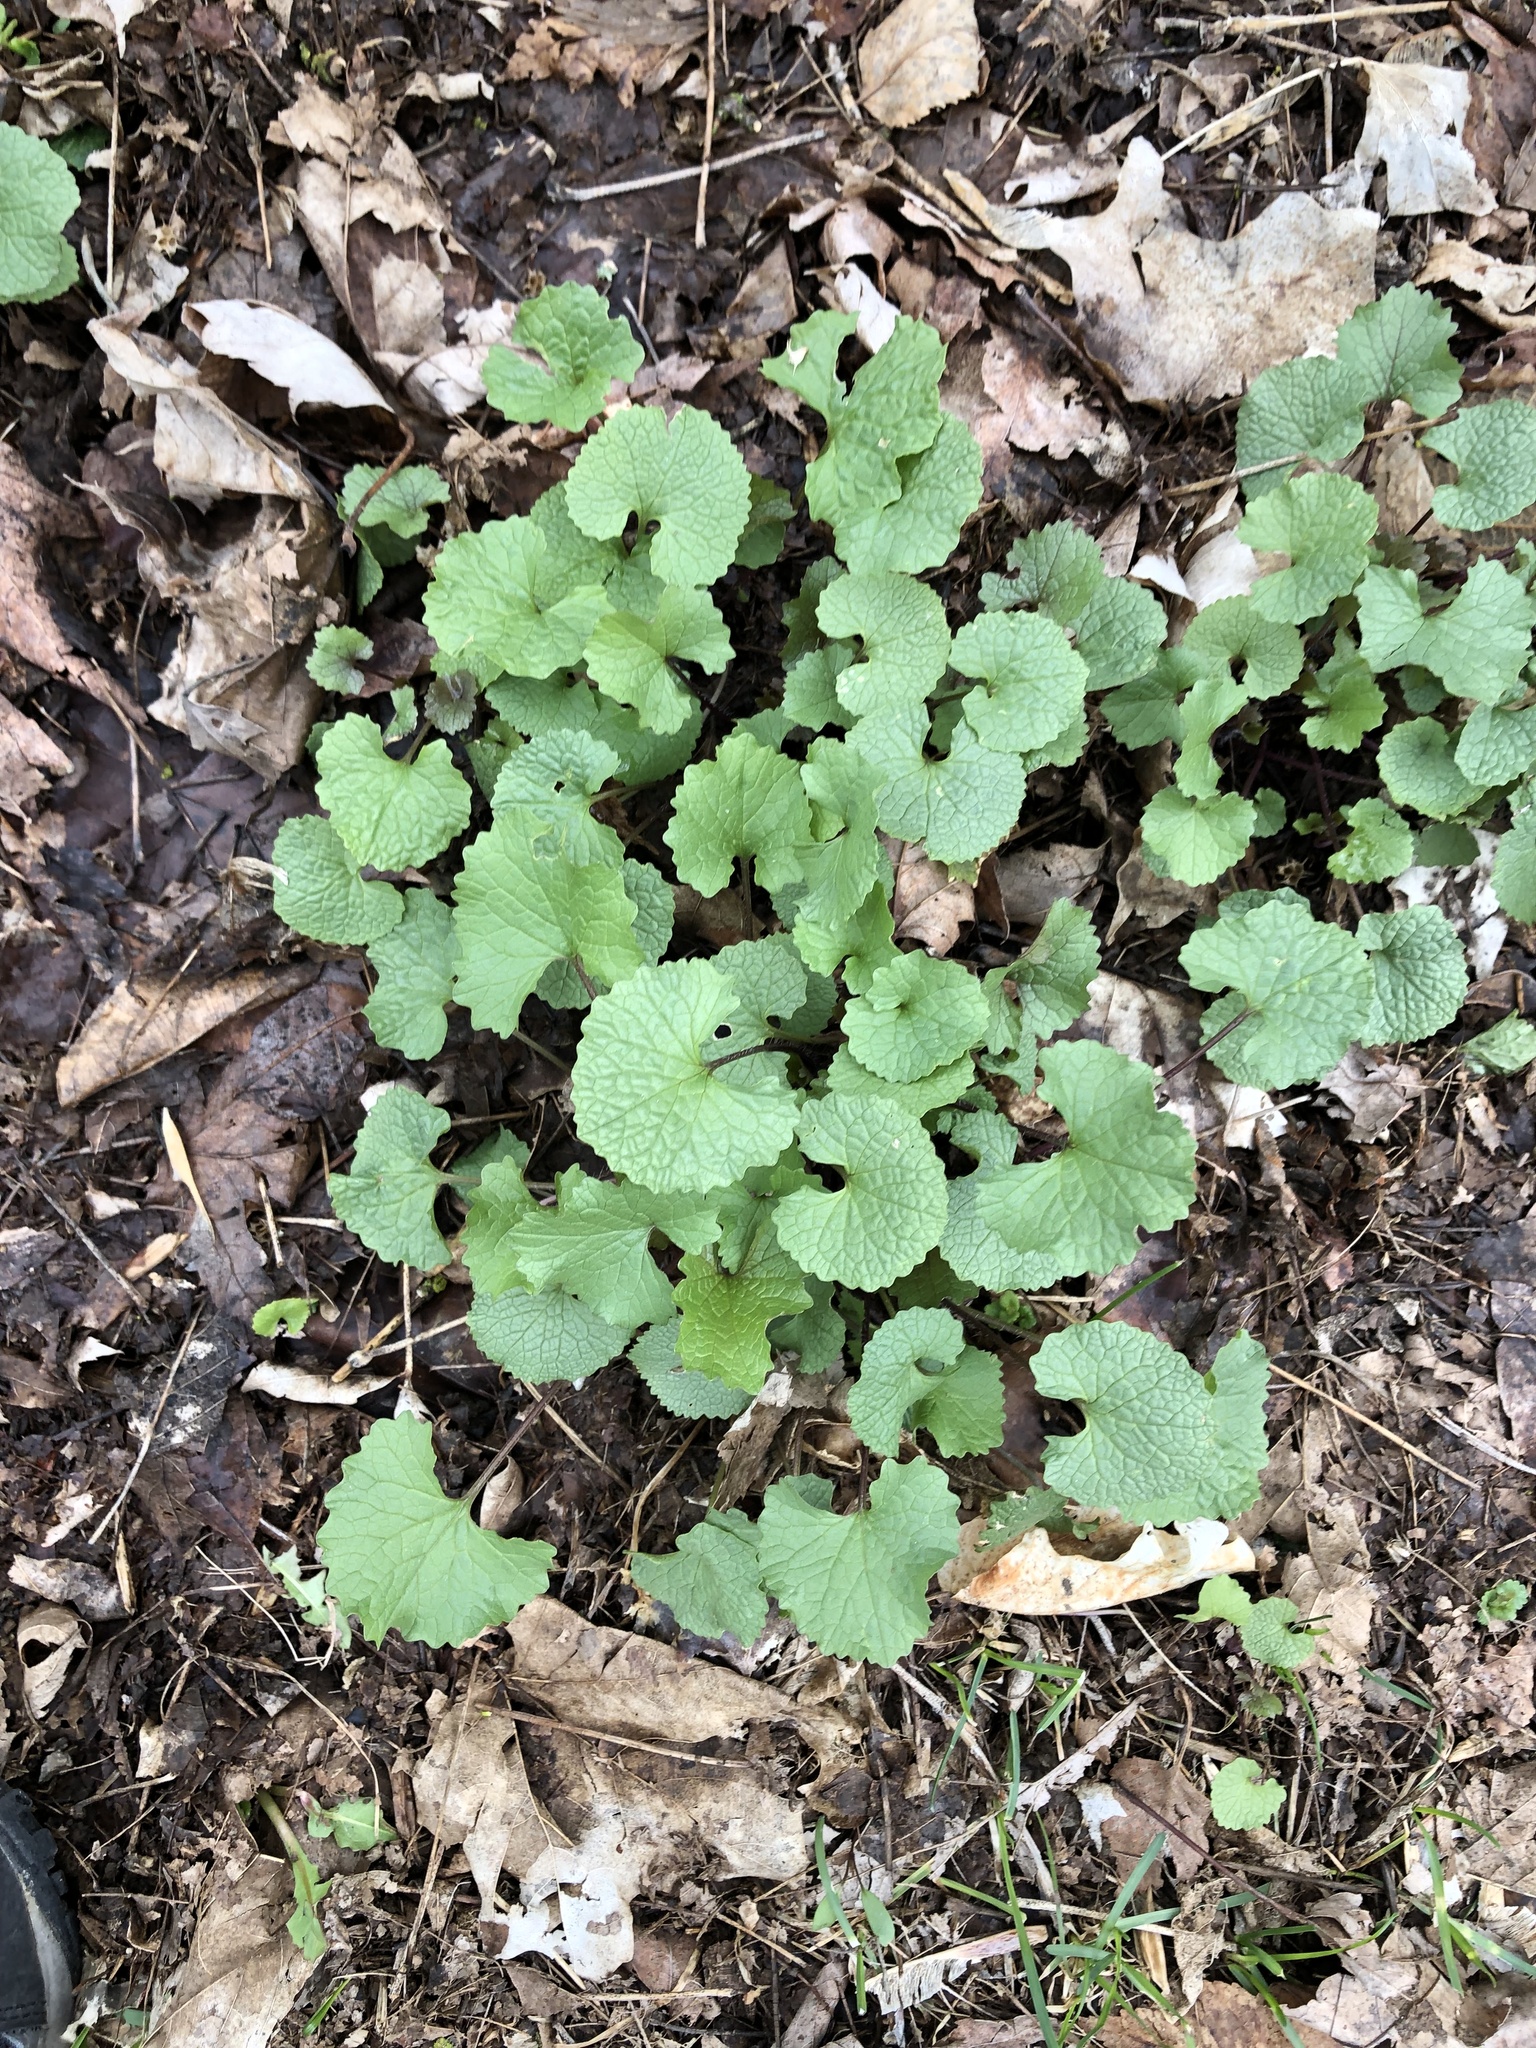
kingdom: Plantae
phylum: Tracheophyta
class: Magnoliopsida
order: Brassicales
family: Brassicaceae
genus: Alliaria
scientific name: Alliaria petiolata
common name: Garlic mustard
